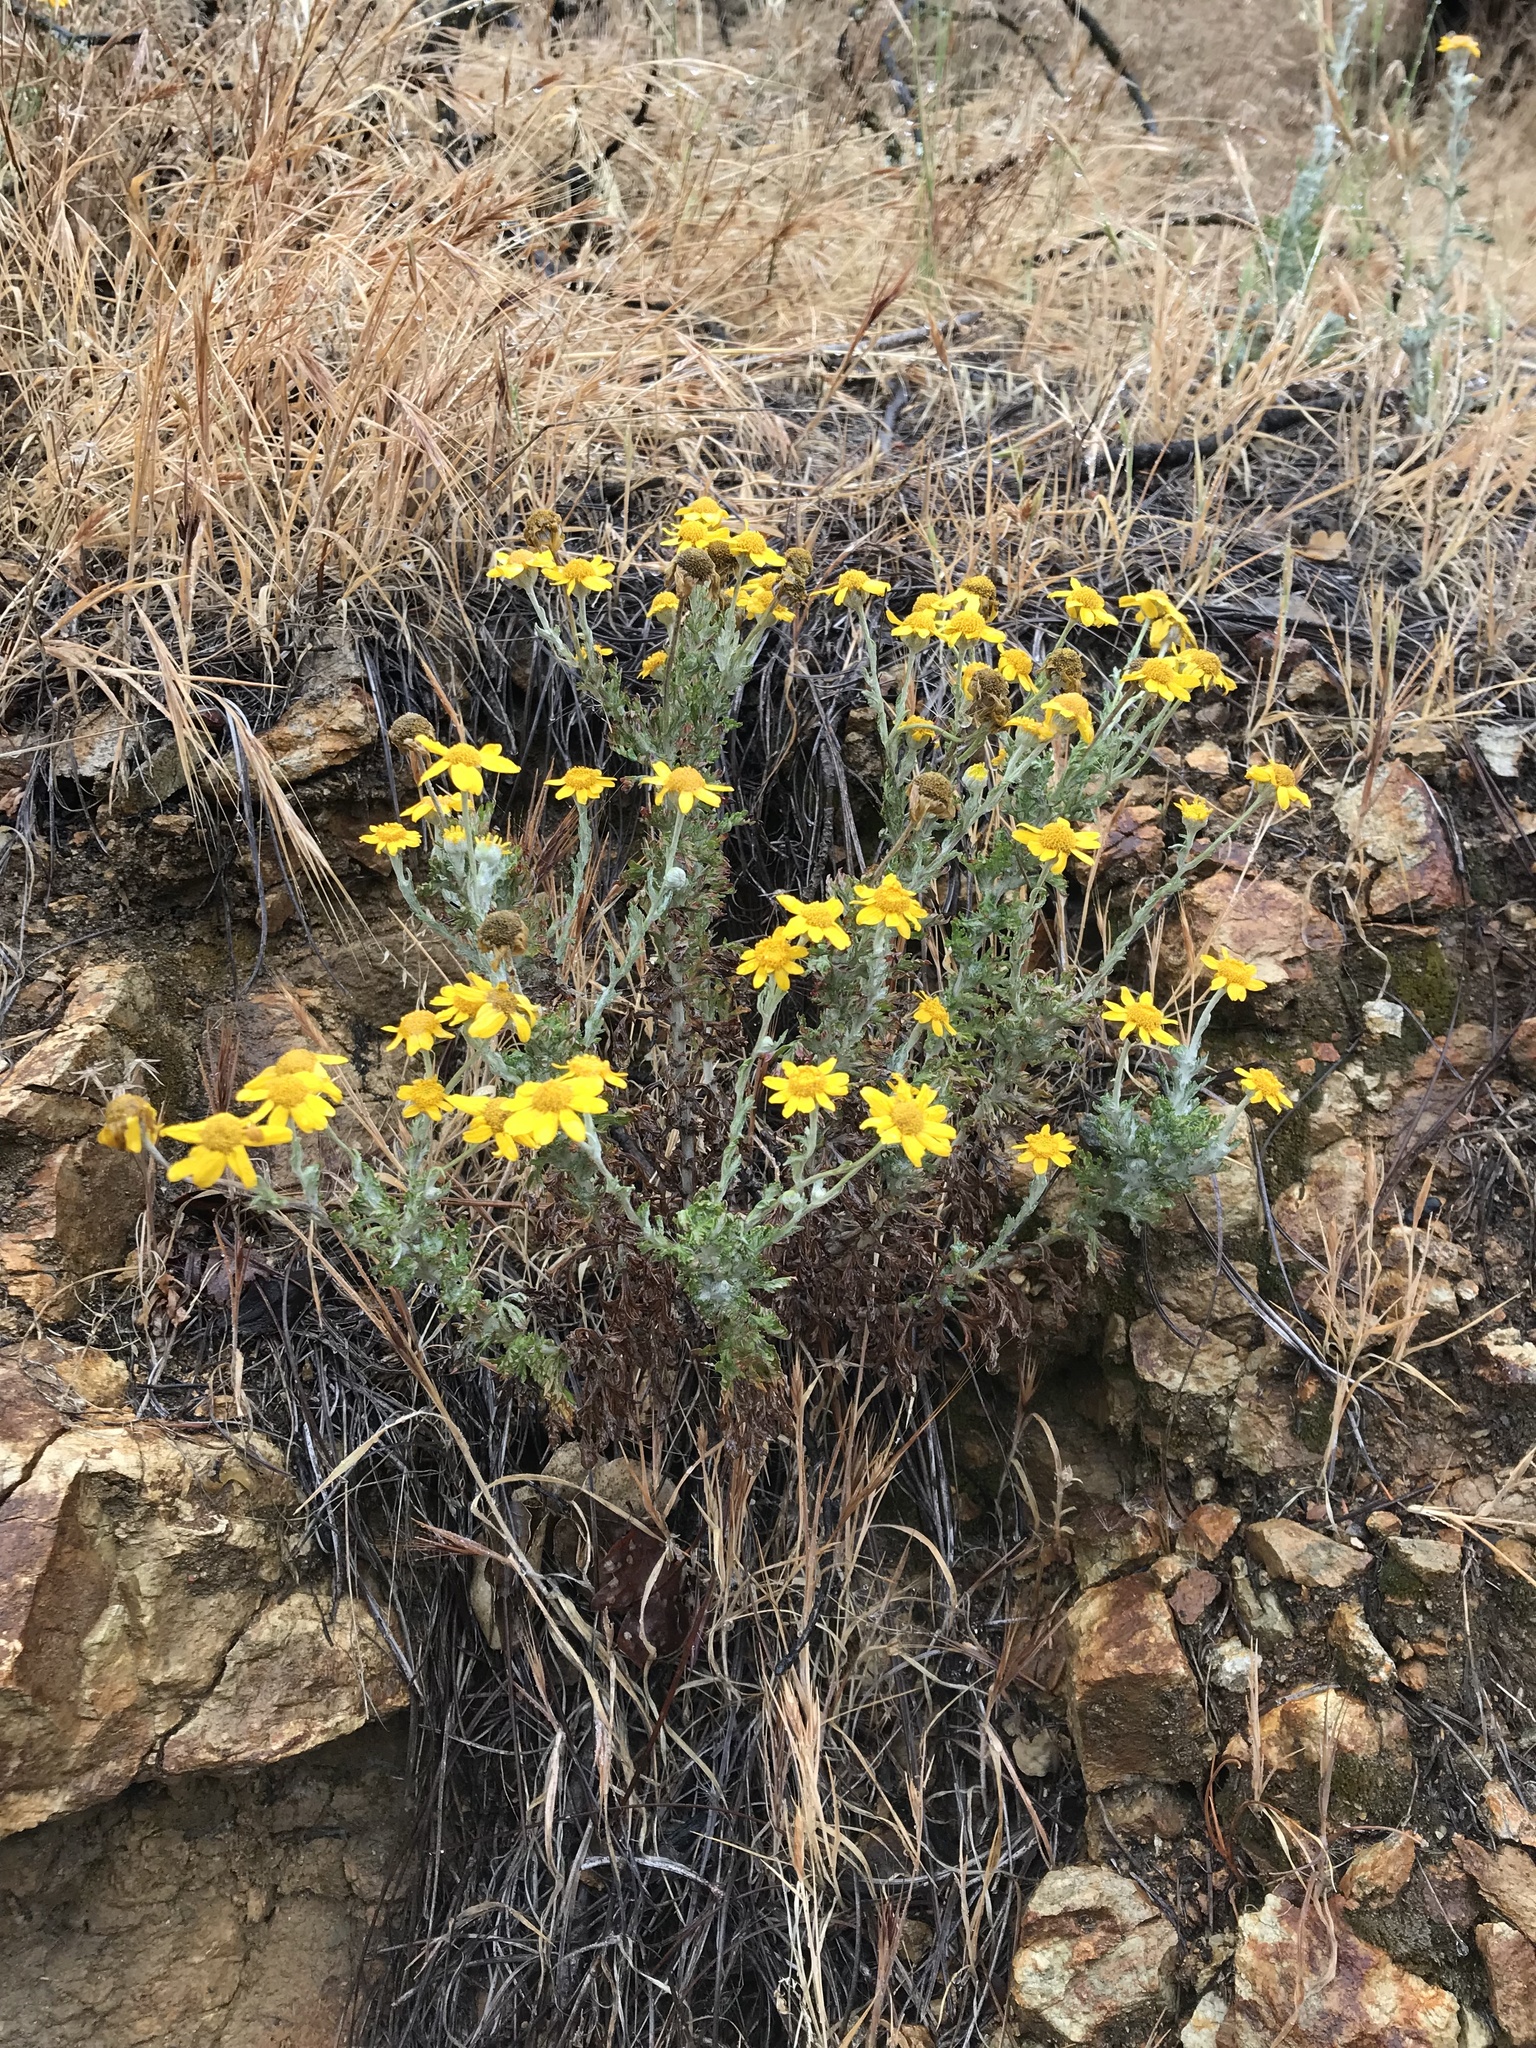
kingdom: Plantae
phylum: Tracheophyta
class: Magnoliopsida
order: Asterales
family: Asteraceae
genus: Eriophyllum
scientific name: Eriophyllum lanatum
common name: Common woolly-sunflower
